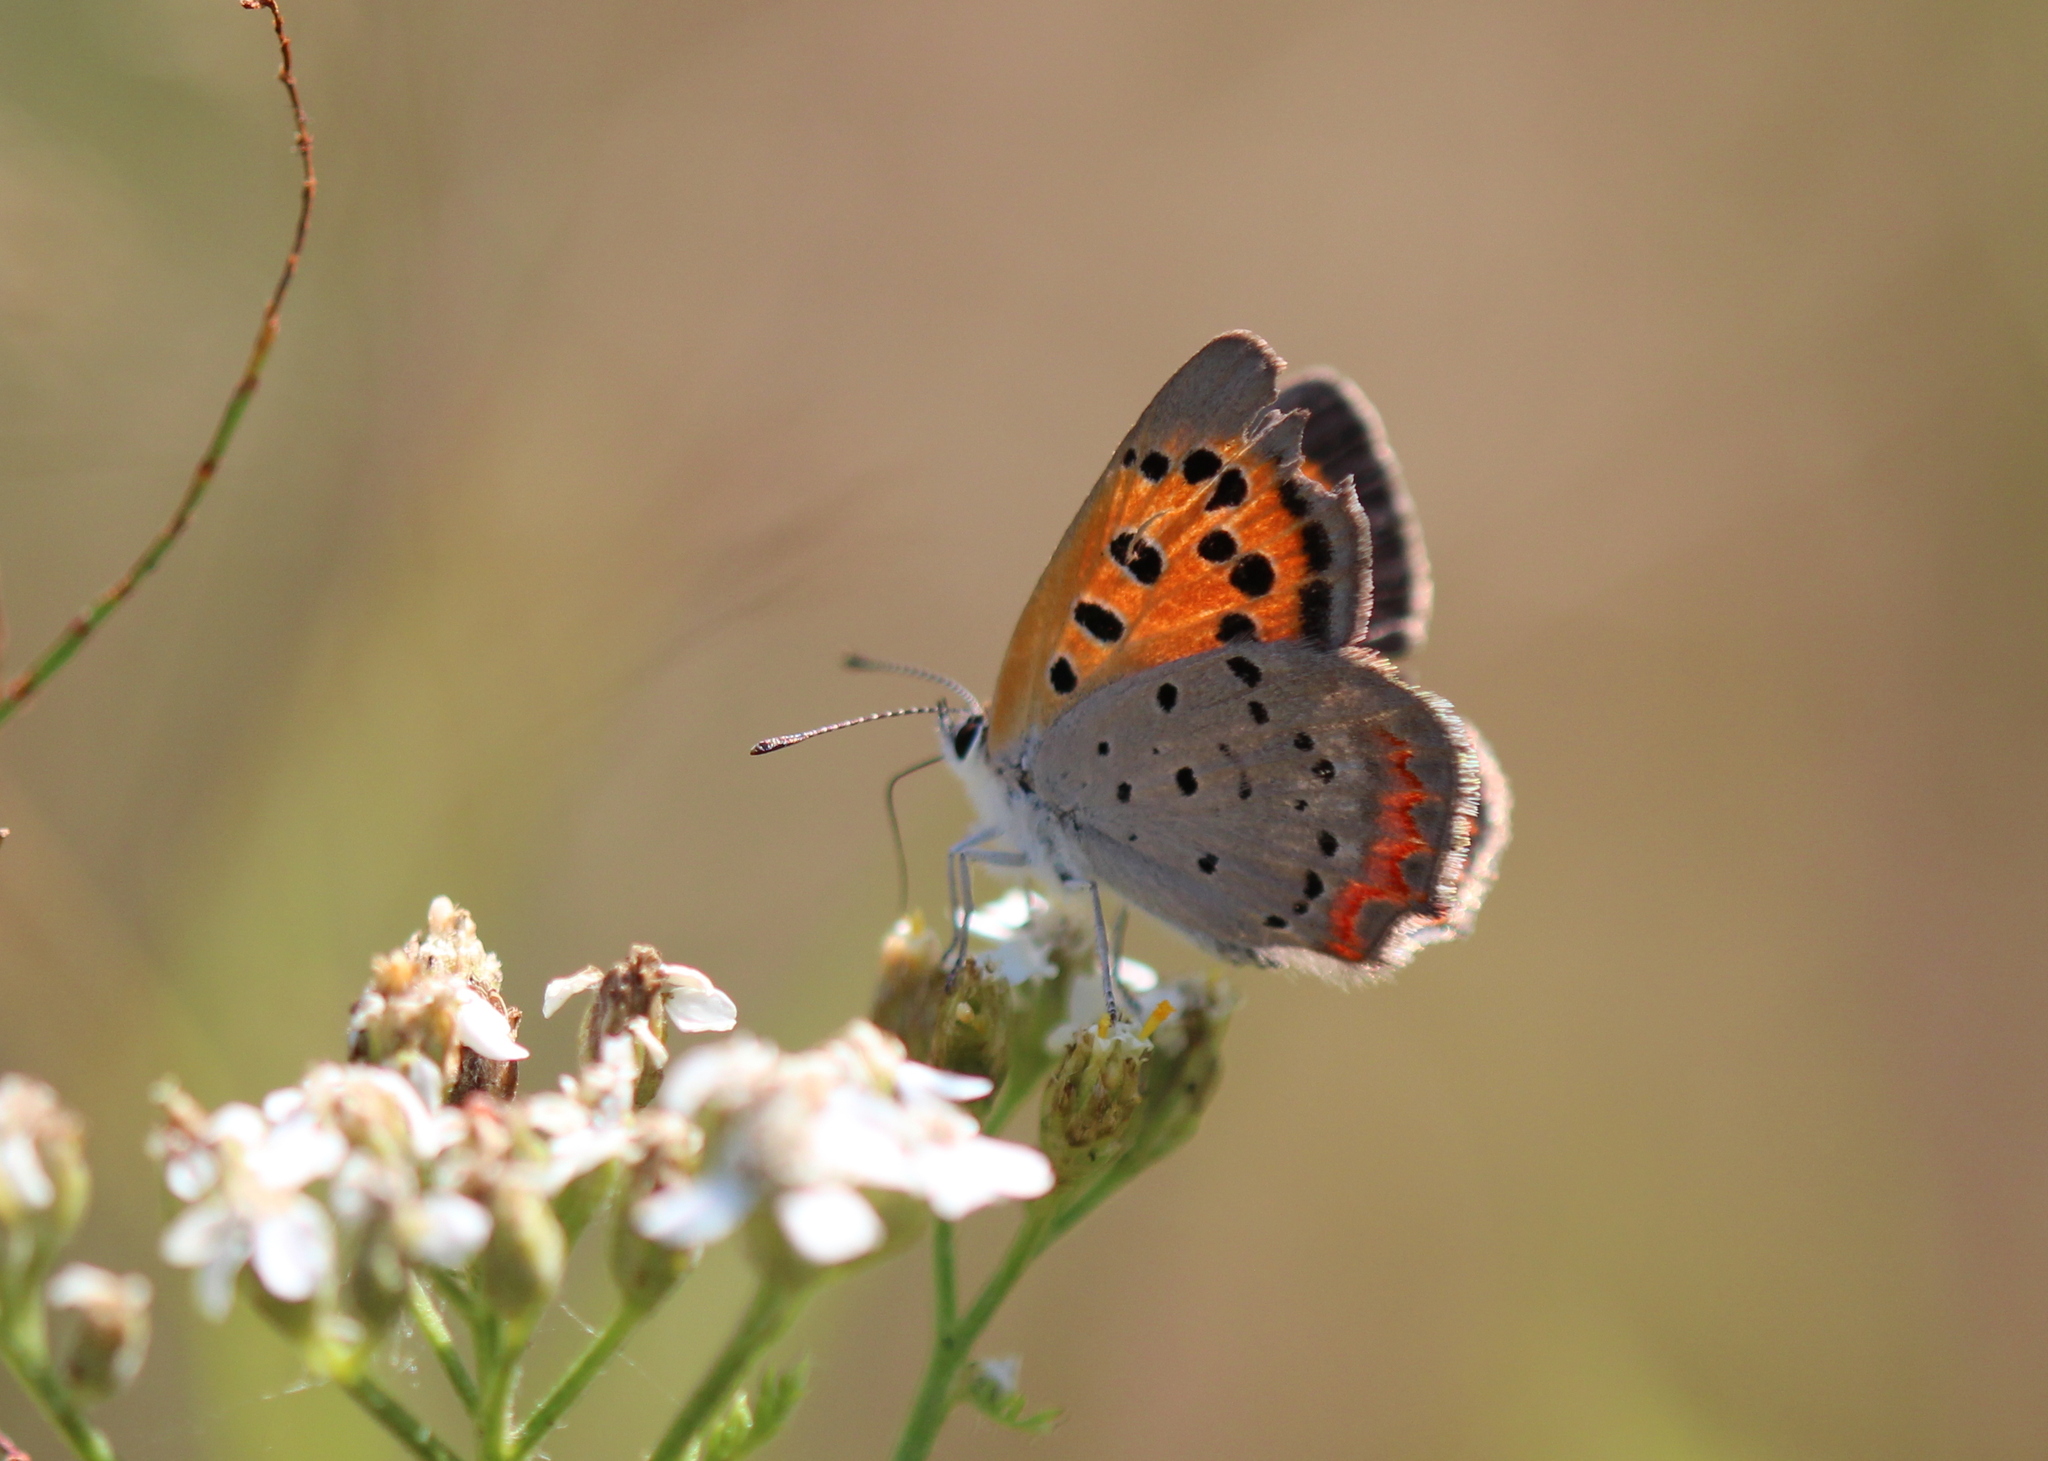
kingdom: Animalia
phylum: Arthropoda
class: Insecta
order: Lepidoptera
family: Lycaenidae
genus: Lycaena
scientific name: Lycaena hypophlaeas
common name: American copper
